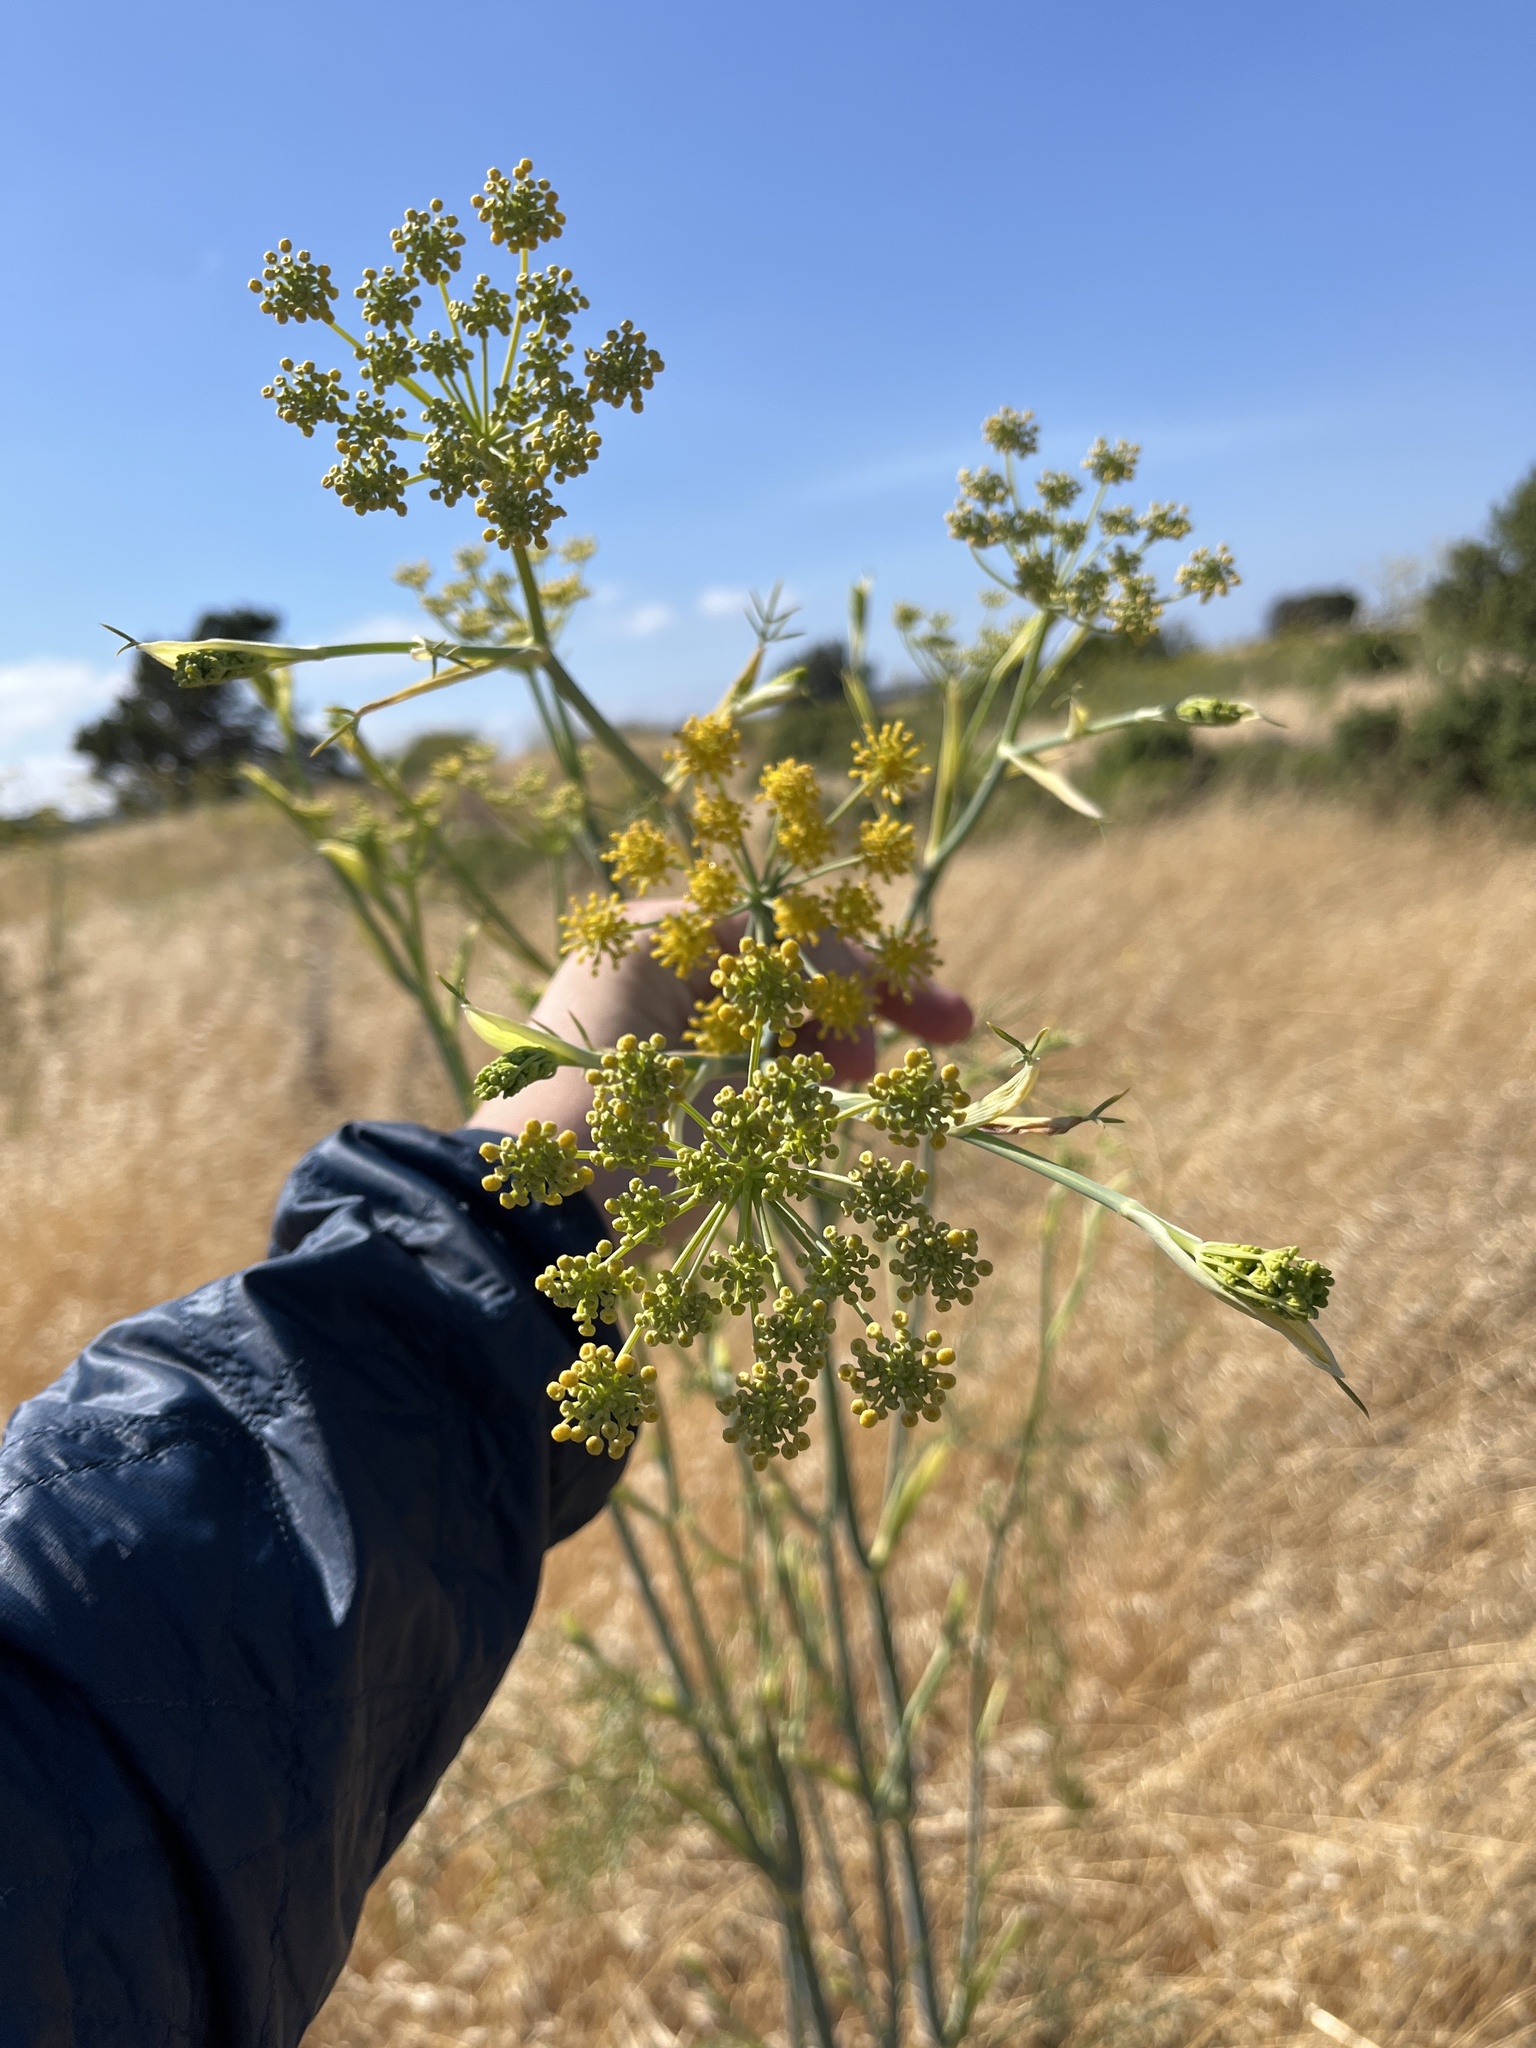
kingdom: Plantae
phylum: Tracheophyta
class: Magnoliopsida
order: Apiales
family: Apiaceae
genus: Foeniculum
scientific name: Foeniculum vulgare
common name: Fennel
